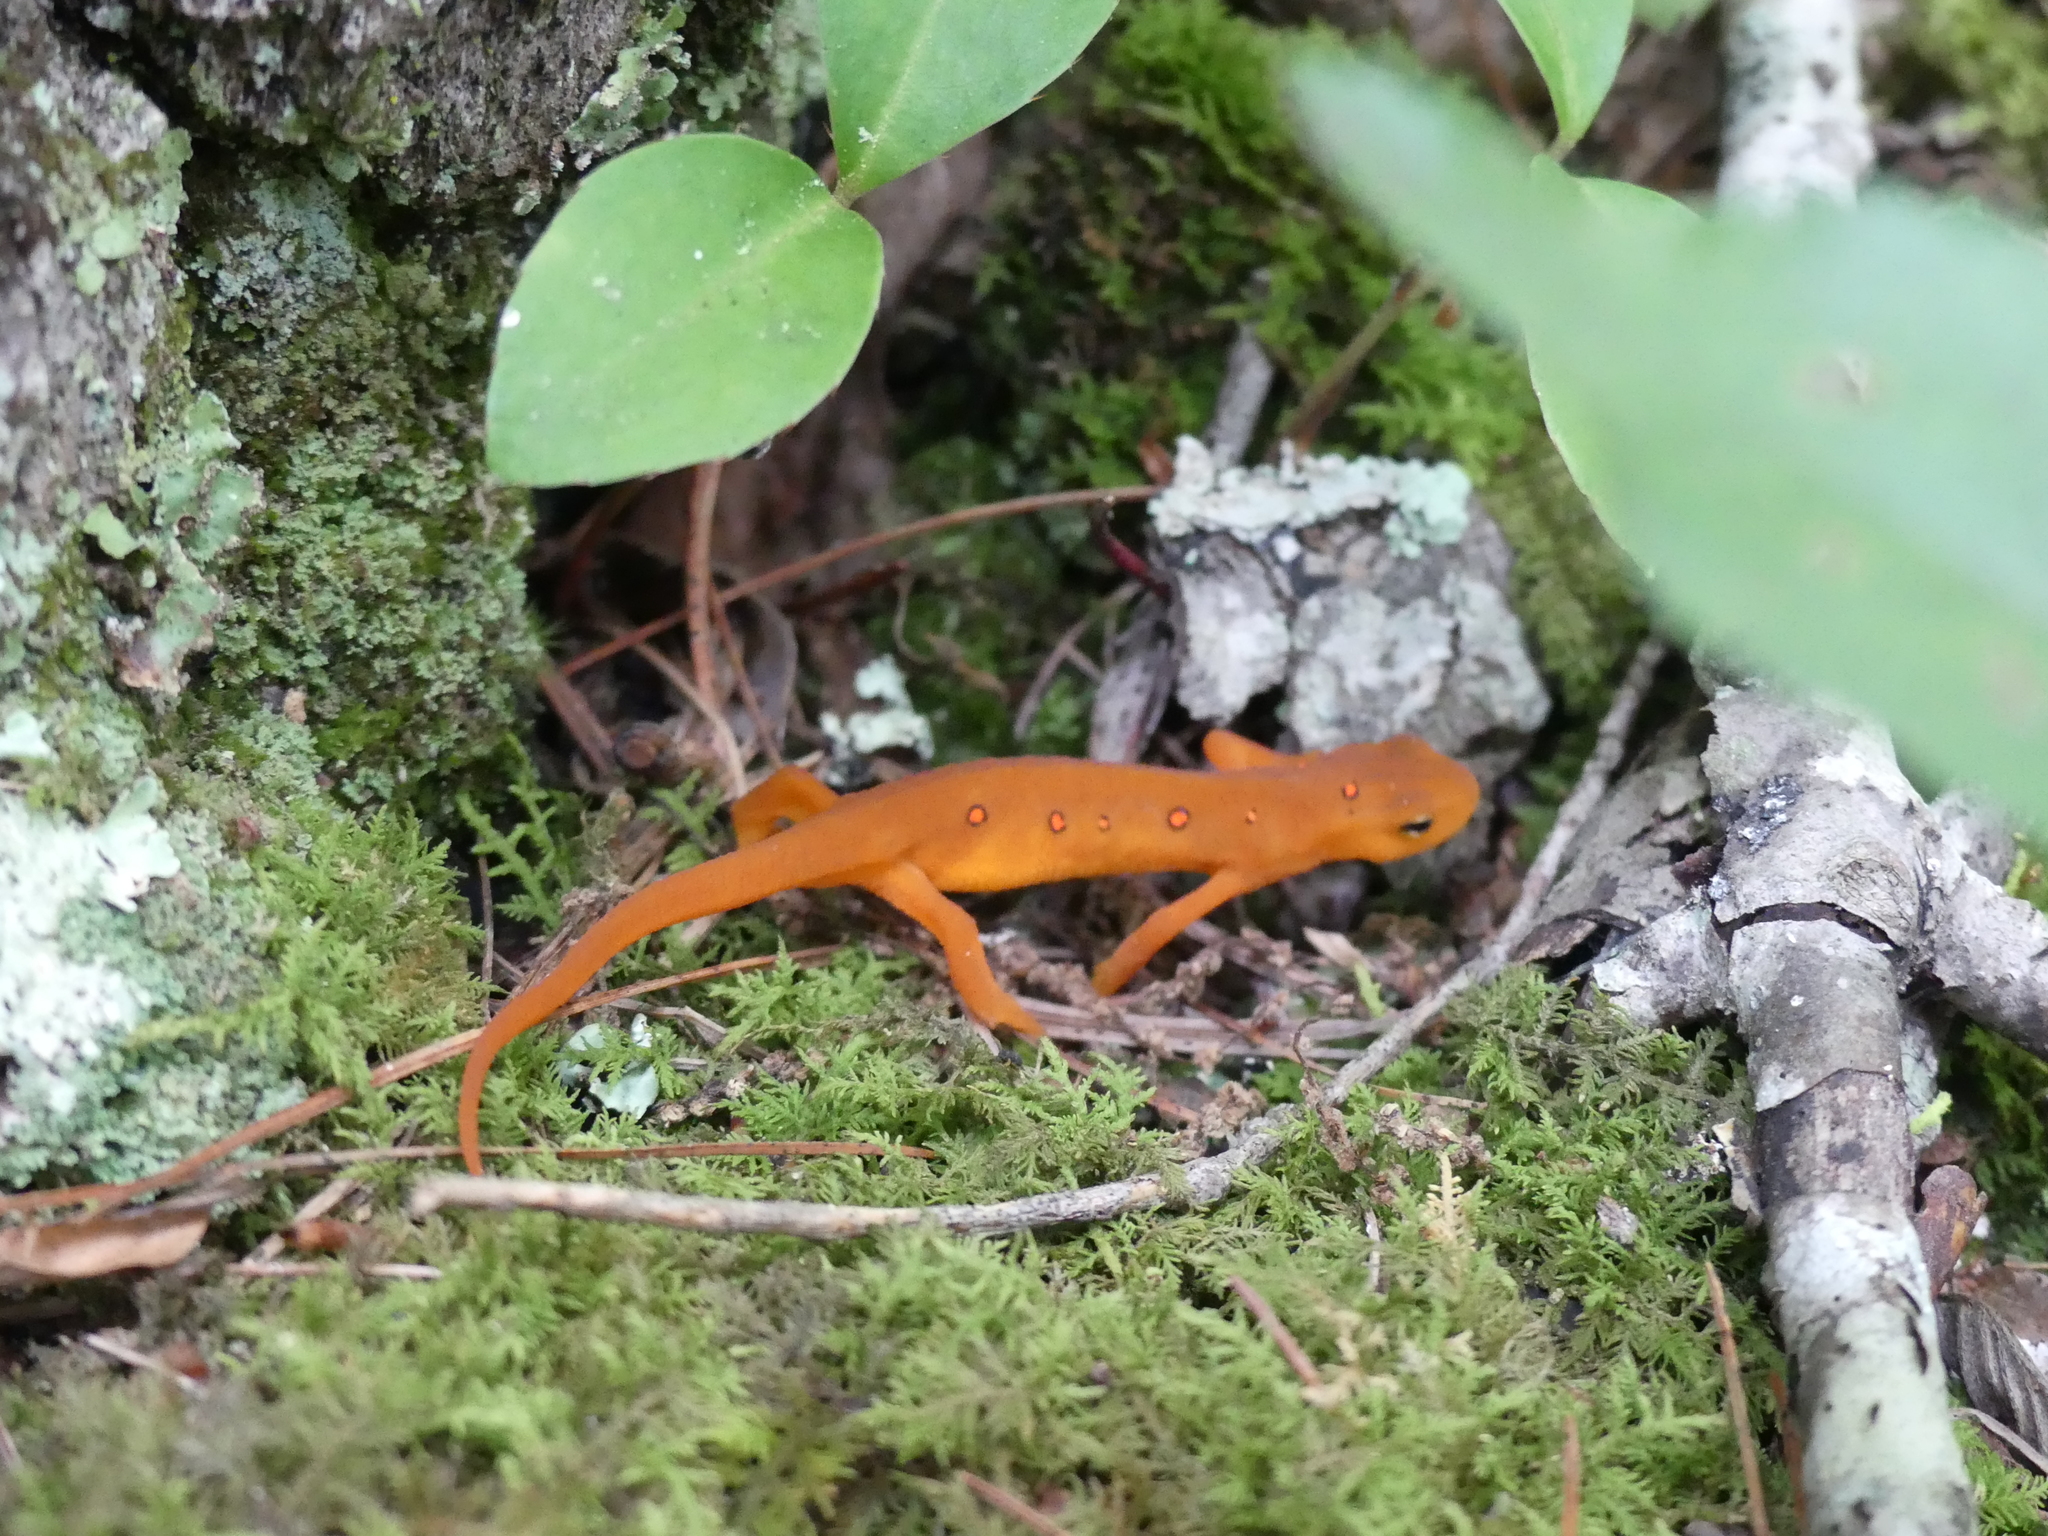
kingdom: Animalia
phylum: Chordata
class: Amphibia
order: Caudata
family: Salamandridae
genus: Notophthalmus
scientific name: Notophthalmus viridescens
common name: Eastern newt
